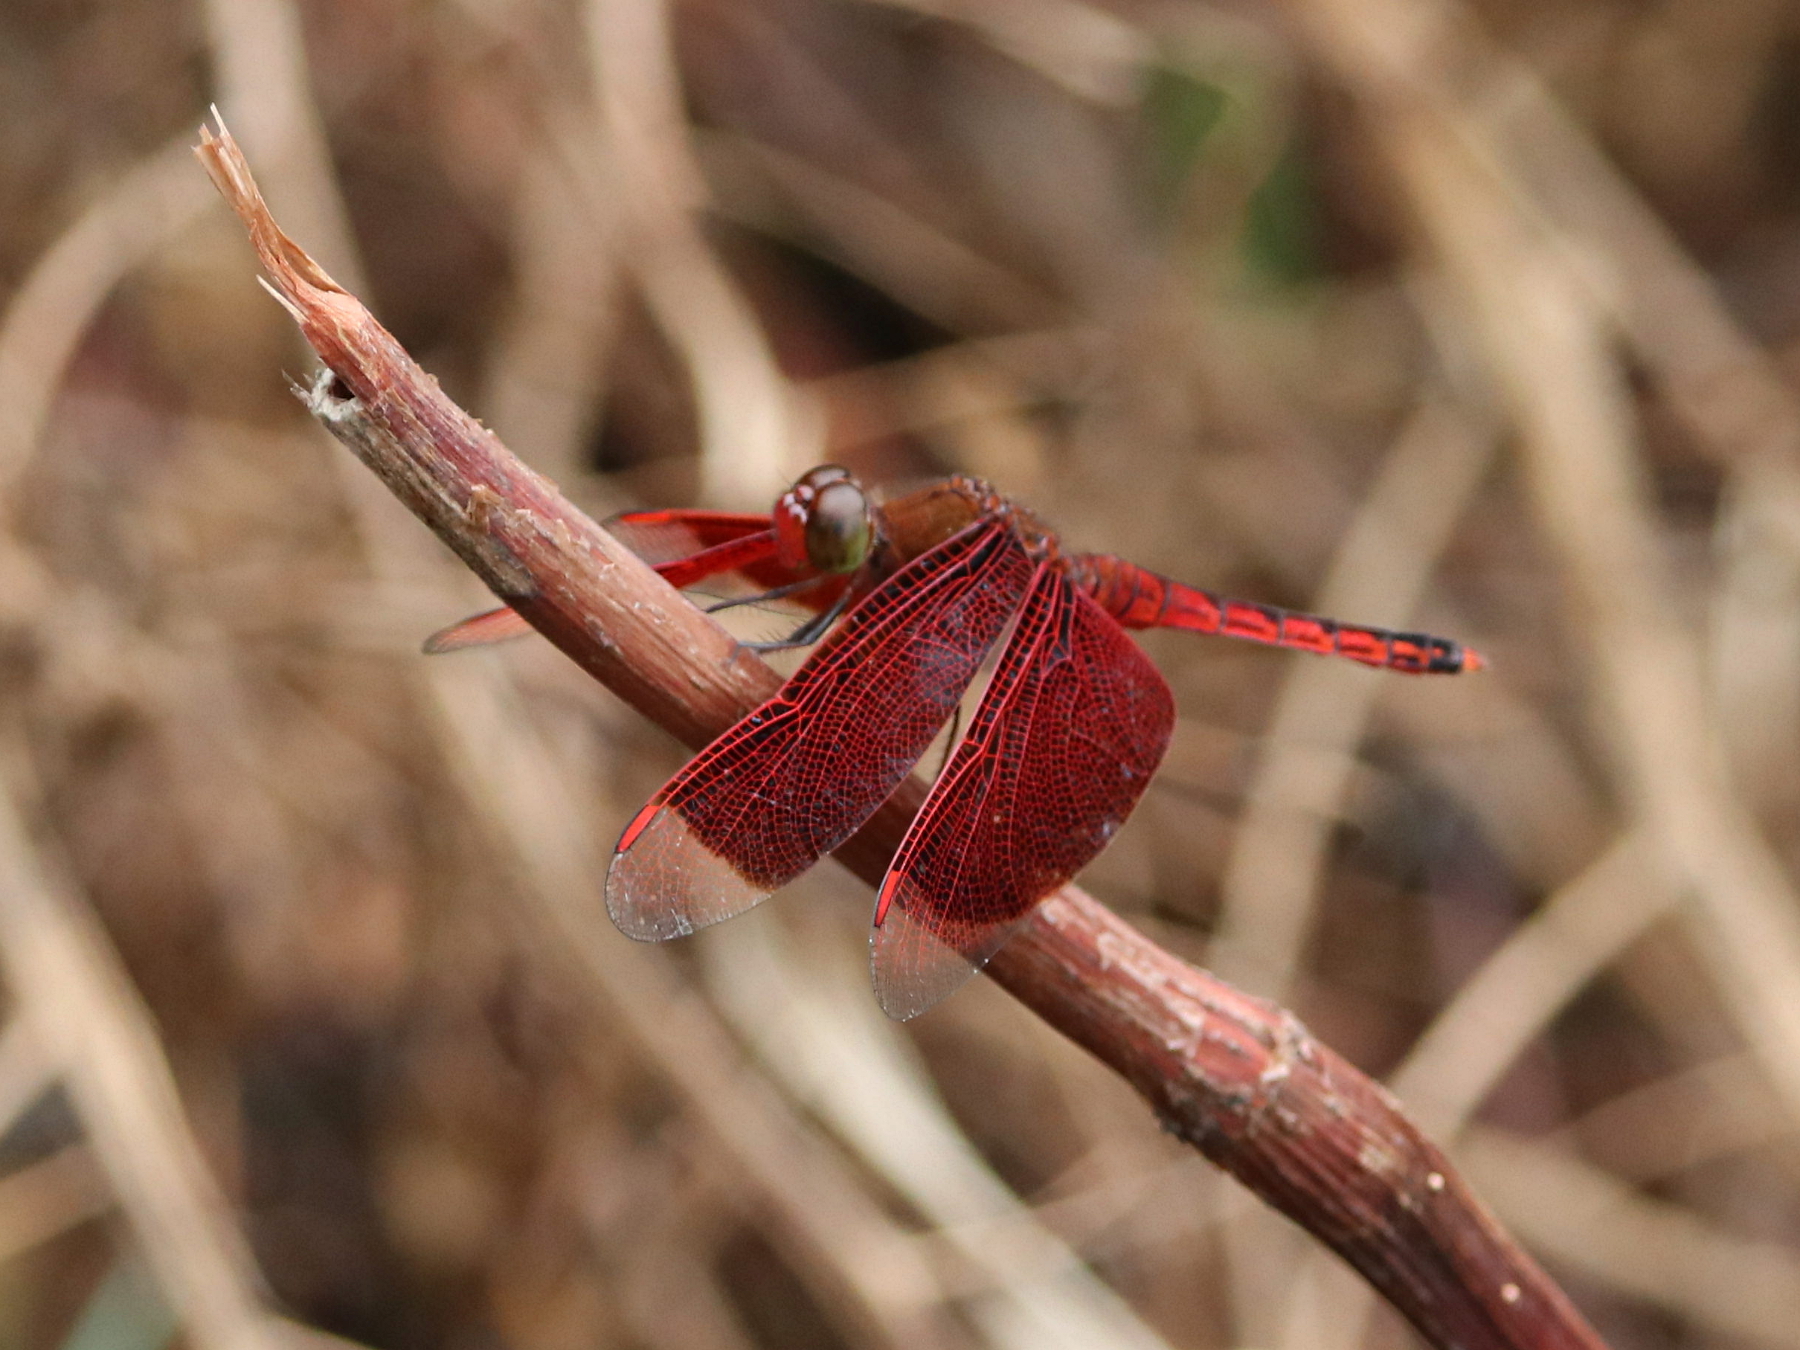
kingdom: Animalia
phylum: Arthropoda
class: Insecta
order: Odonata
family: Libellulidae
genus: Neurothemis
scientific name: Neurothemis terminata
